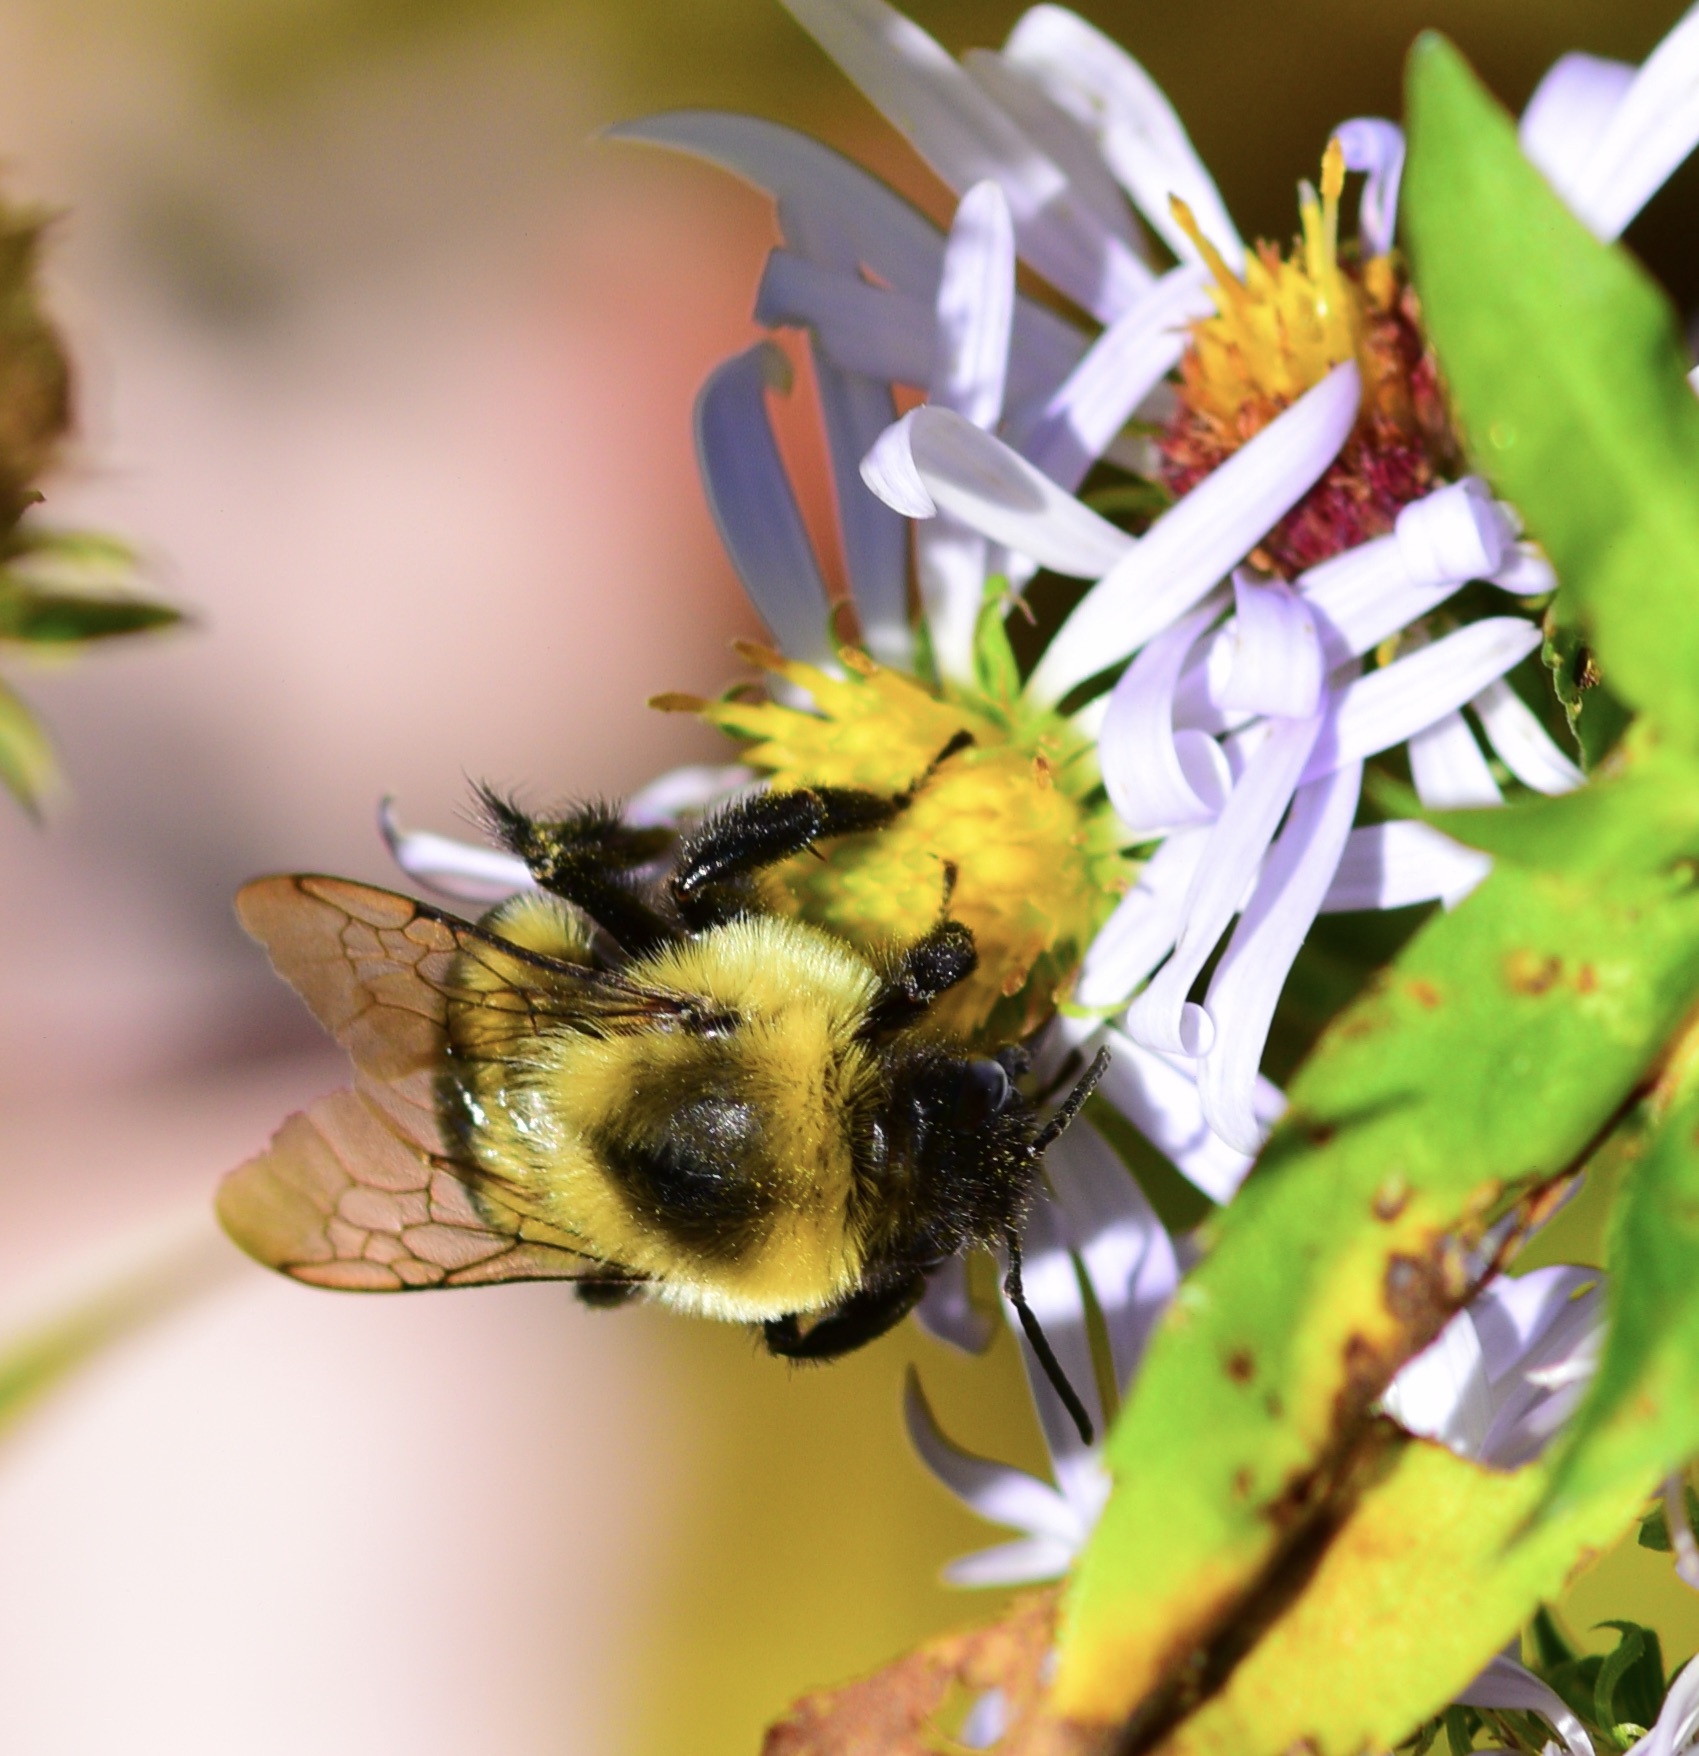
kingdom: Animalia
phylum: Arthropoda
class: Insecta
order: Hymenoptera
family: Apidae
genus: Bombus
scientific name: Bombus impatiens
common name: Common eastern bumble bee
